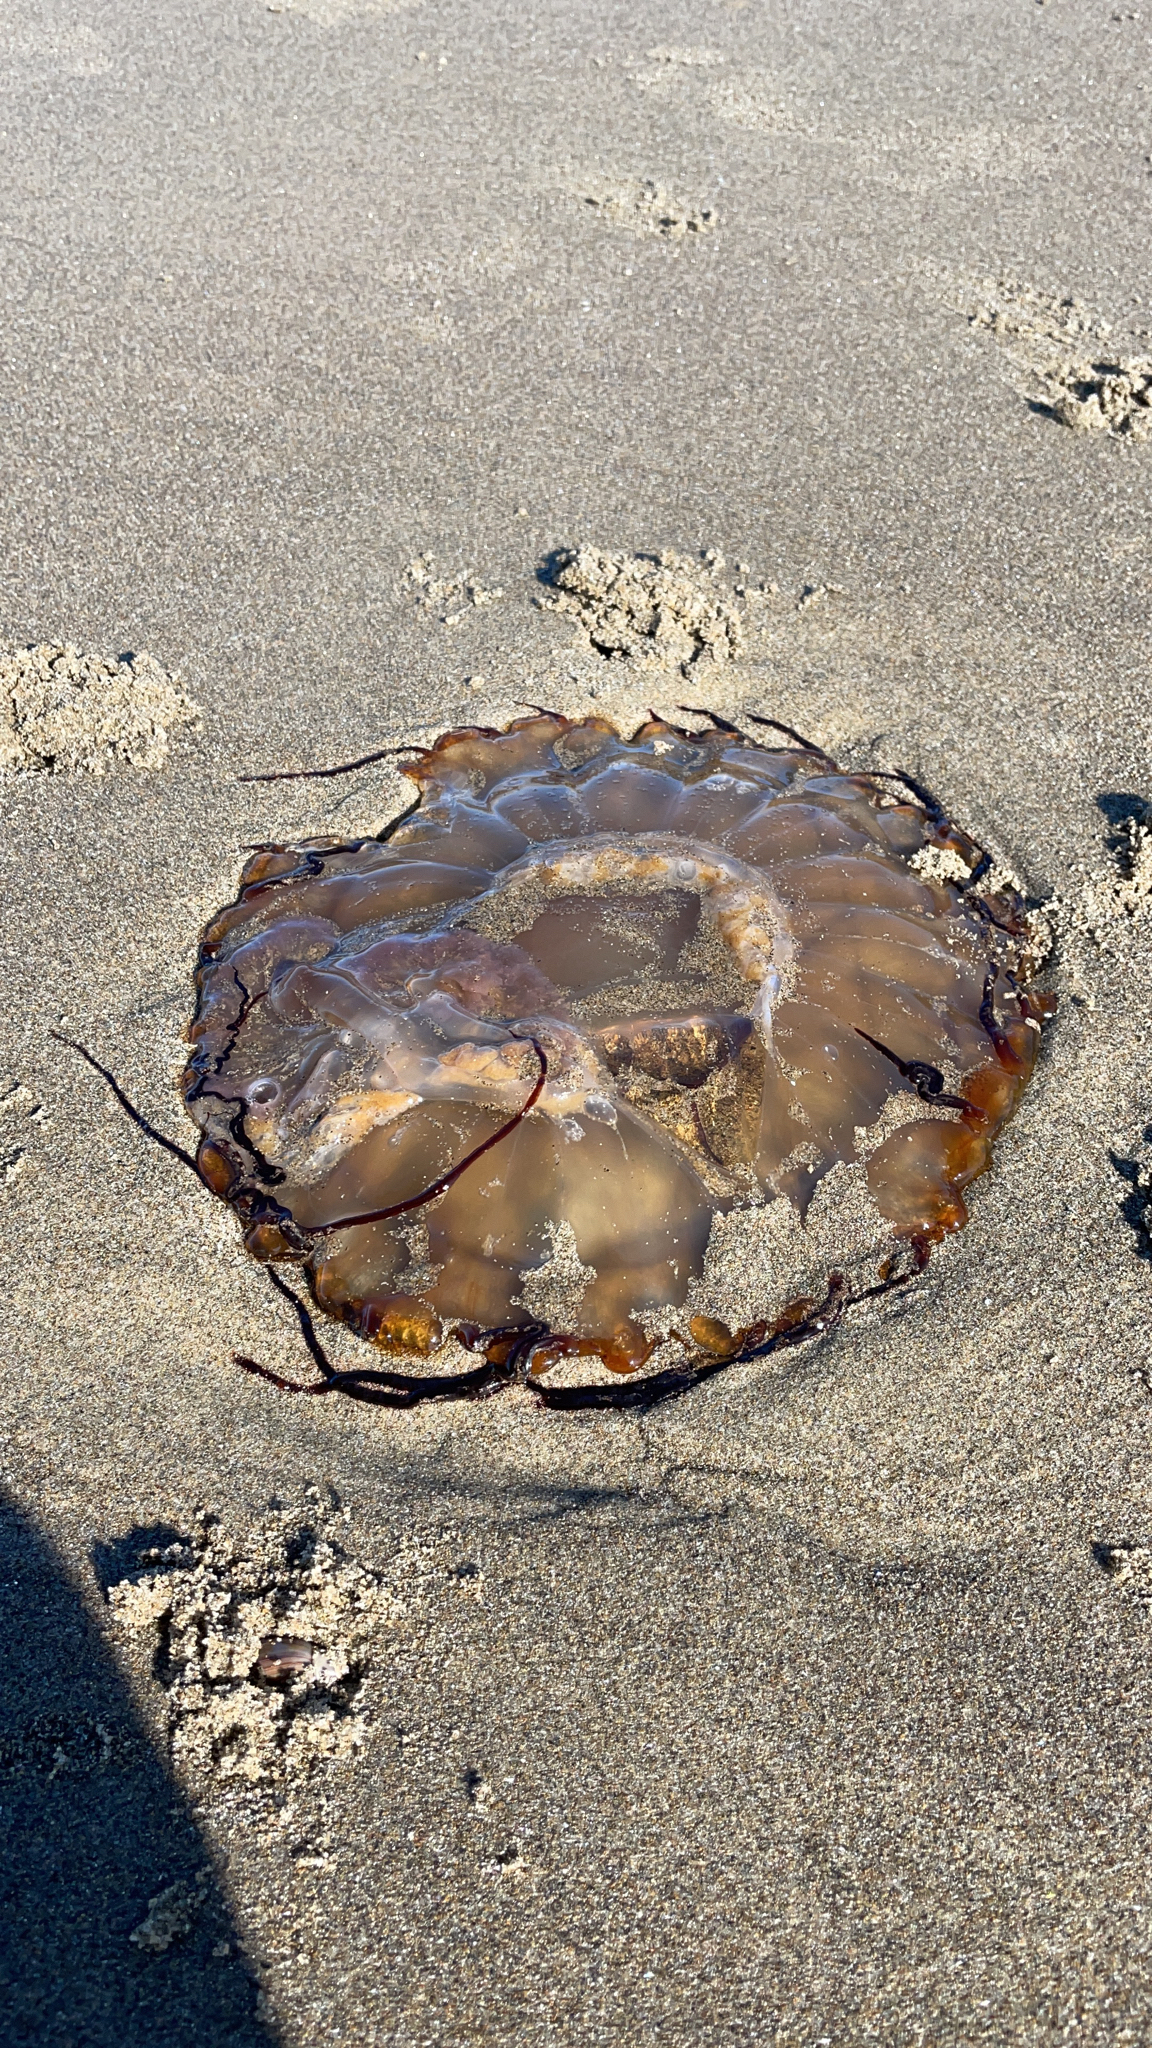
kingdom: Animalia
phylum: Cnidaria
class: Scyphozoa
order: Semaeostomeae
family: Pelagiidae
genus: Chrysaora
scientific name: Chrysaora fuscescens
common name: Sea nettle
